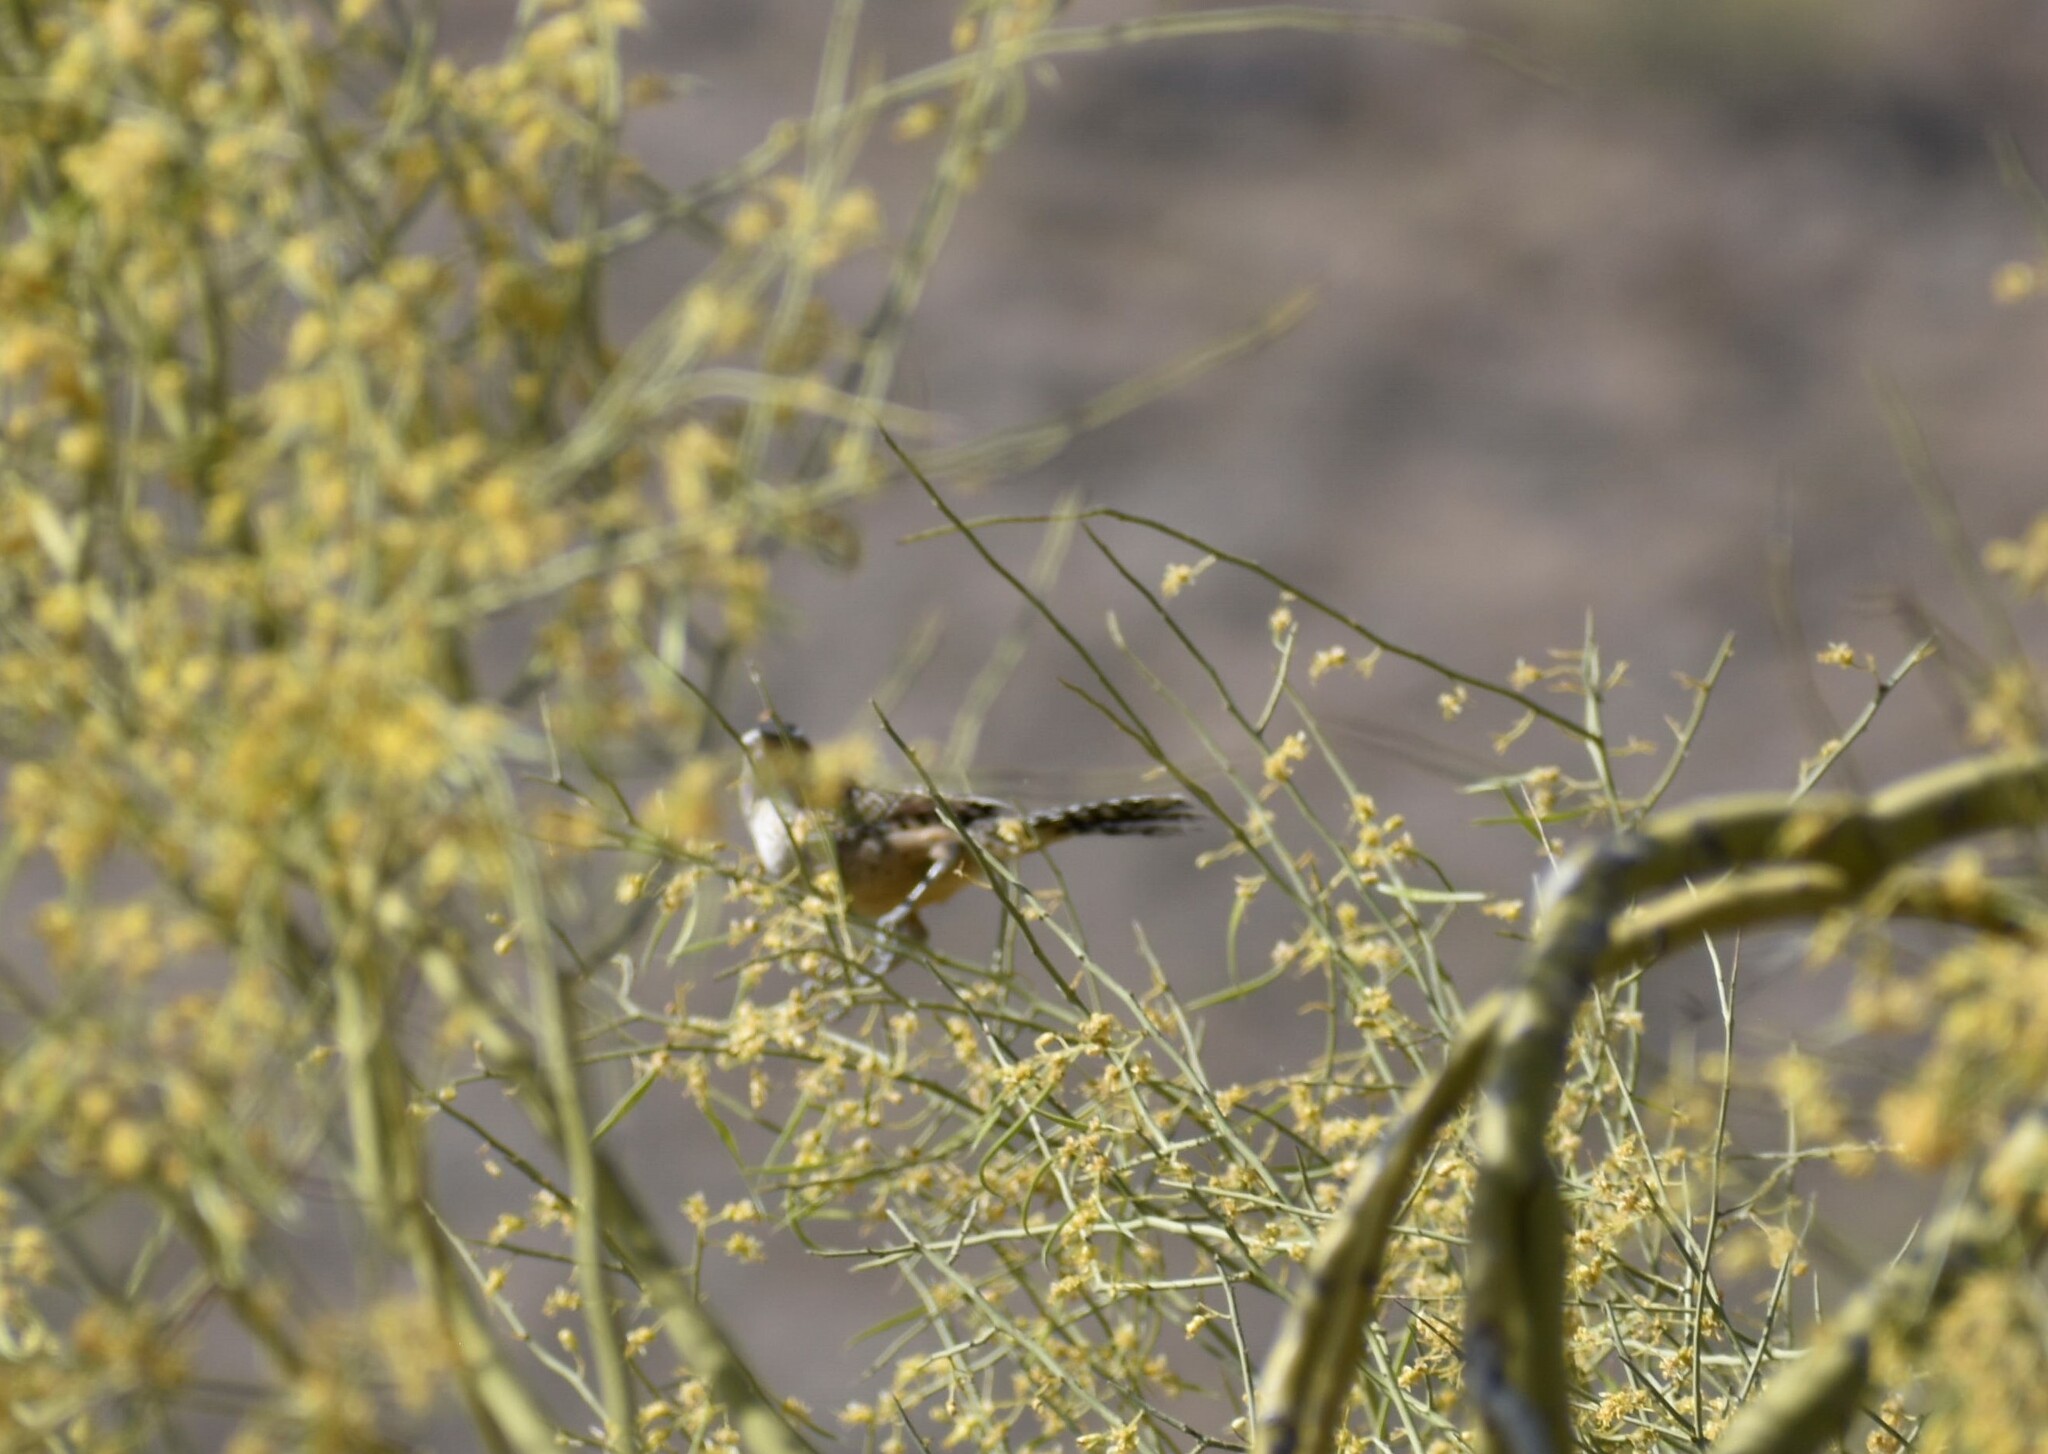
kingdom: Animalia
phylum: Chordata
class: Aves
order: Passeriformes
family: Troglodytidae
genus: Campylorhynchus
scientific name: Campylorhynchus brunneicapillus
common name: Cactus wren
